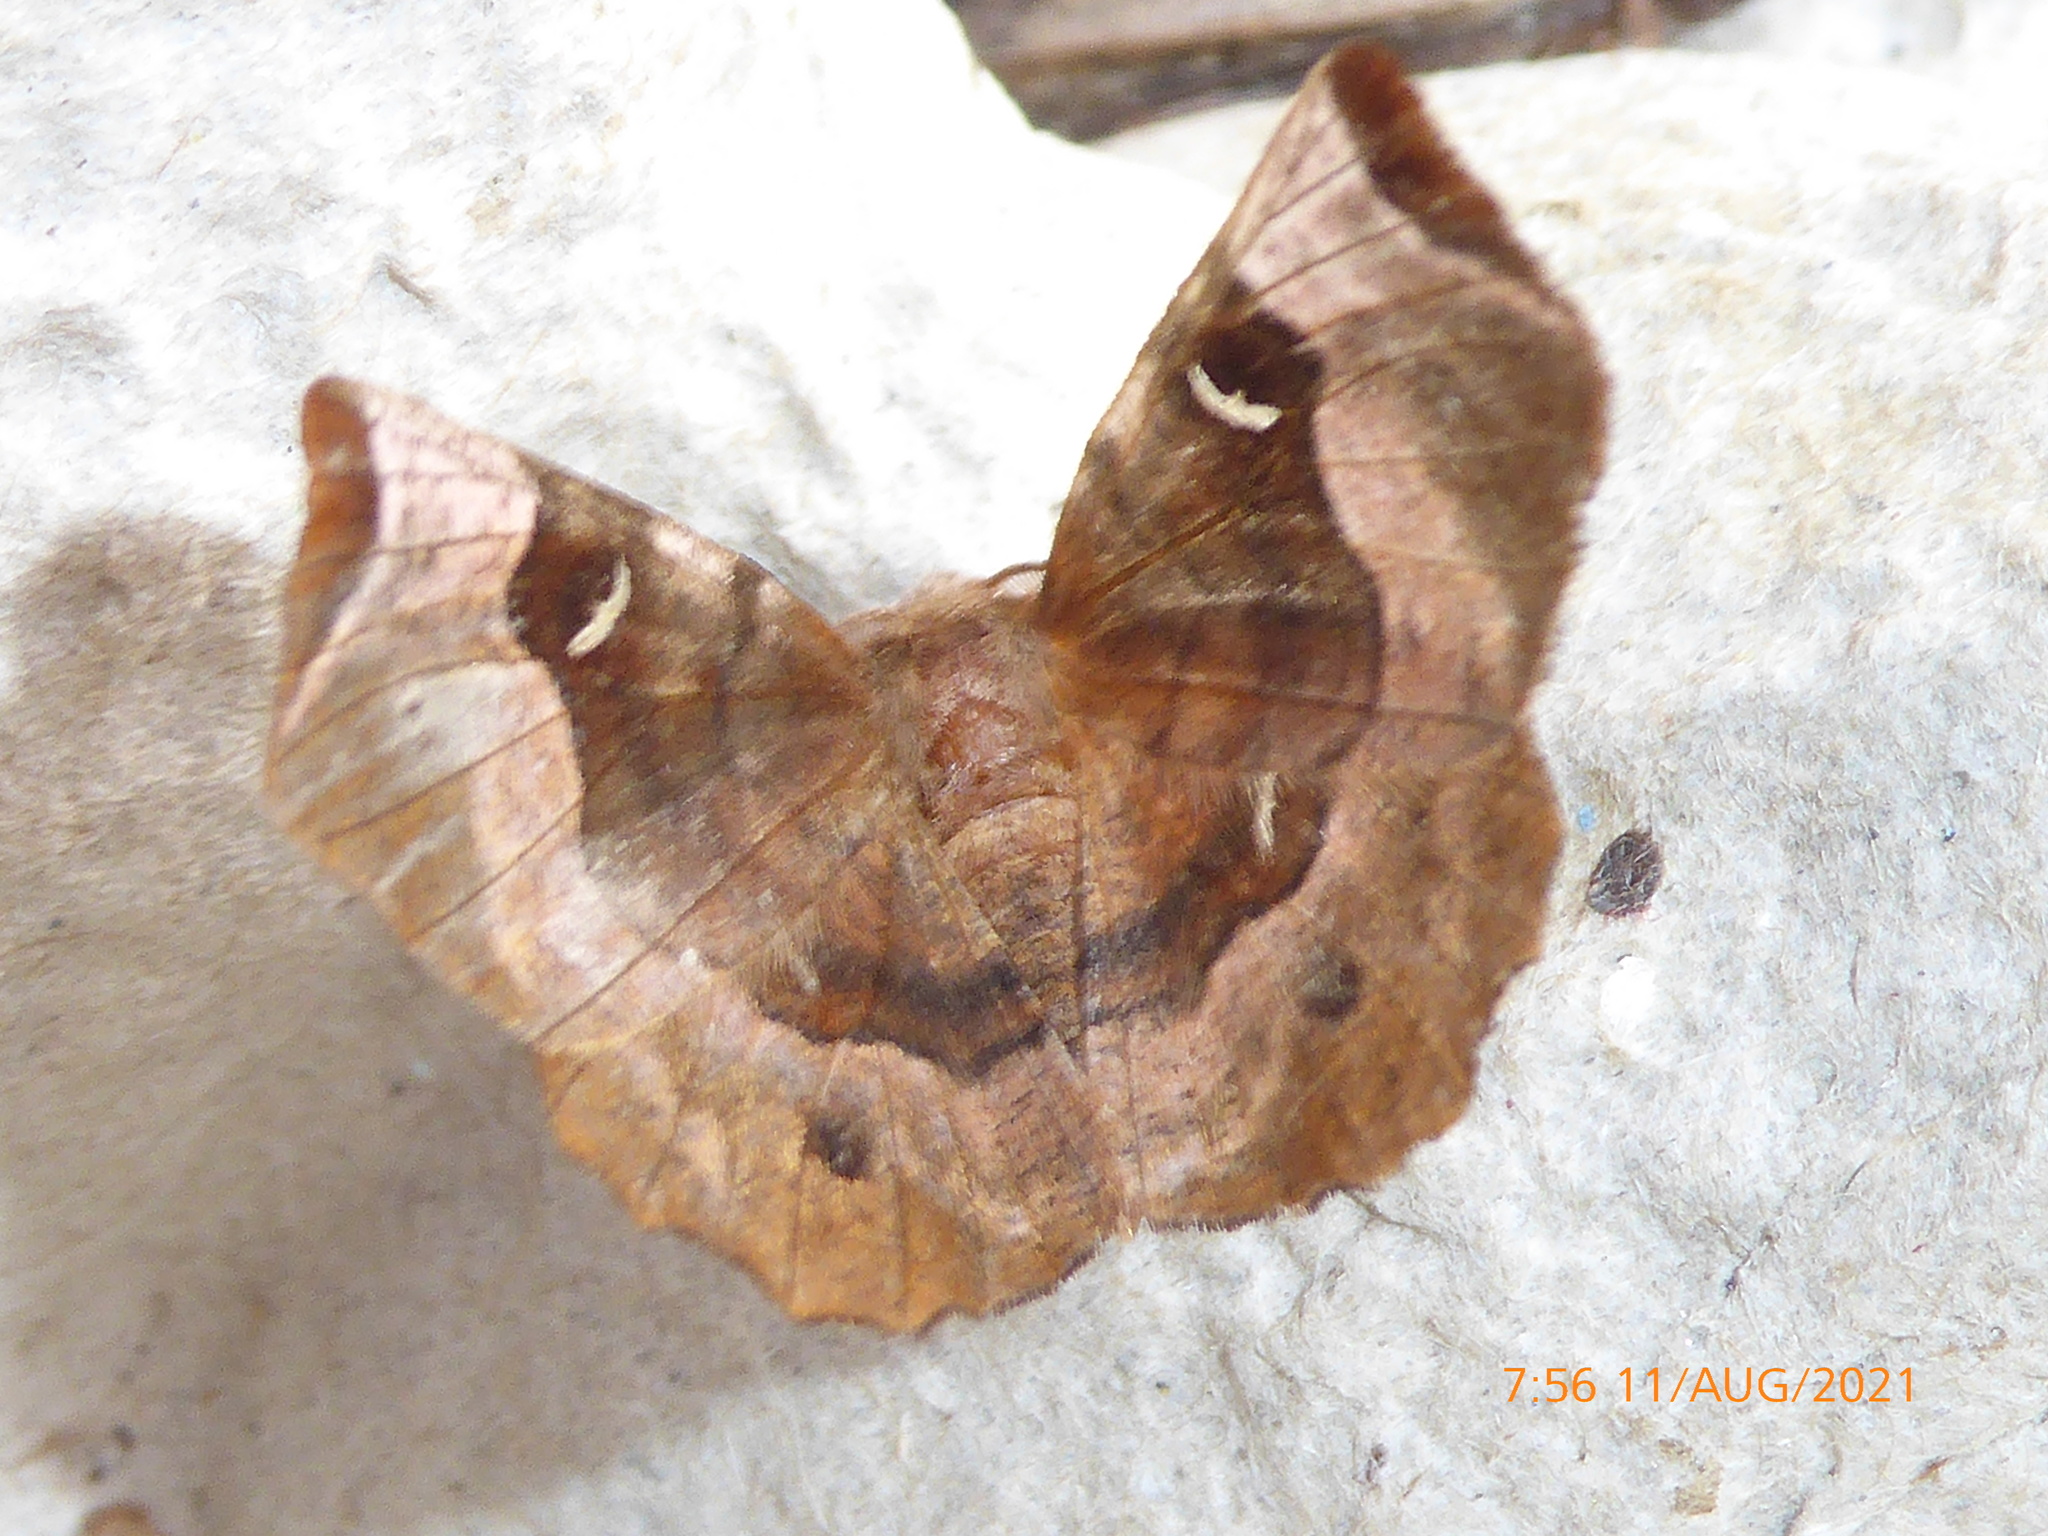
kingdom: Animalia
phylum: Arthropoda
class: Insecta
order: Lepidoptera
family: Geometridae
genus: Selenia
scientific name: Selenia tetralunaria
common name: Purple thorn
